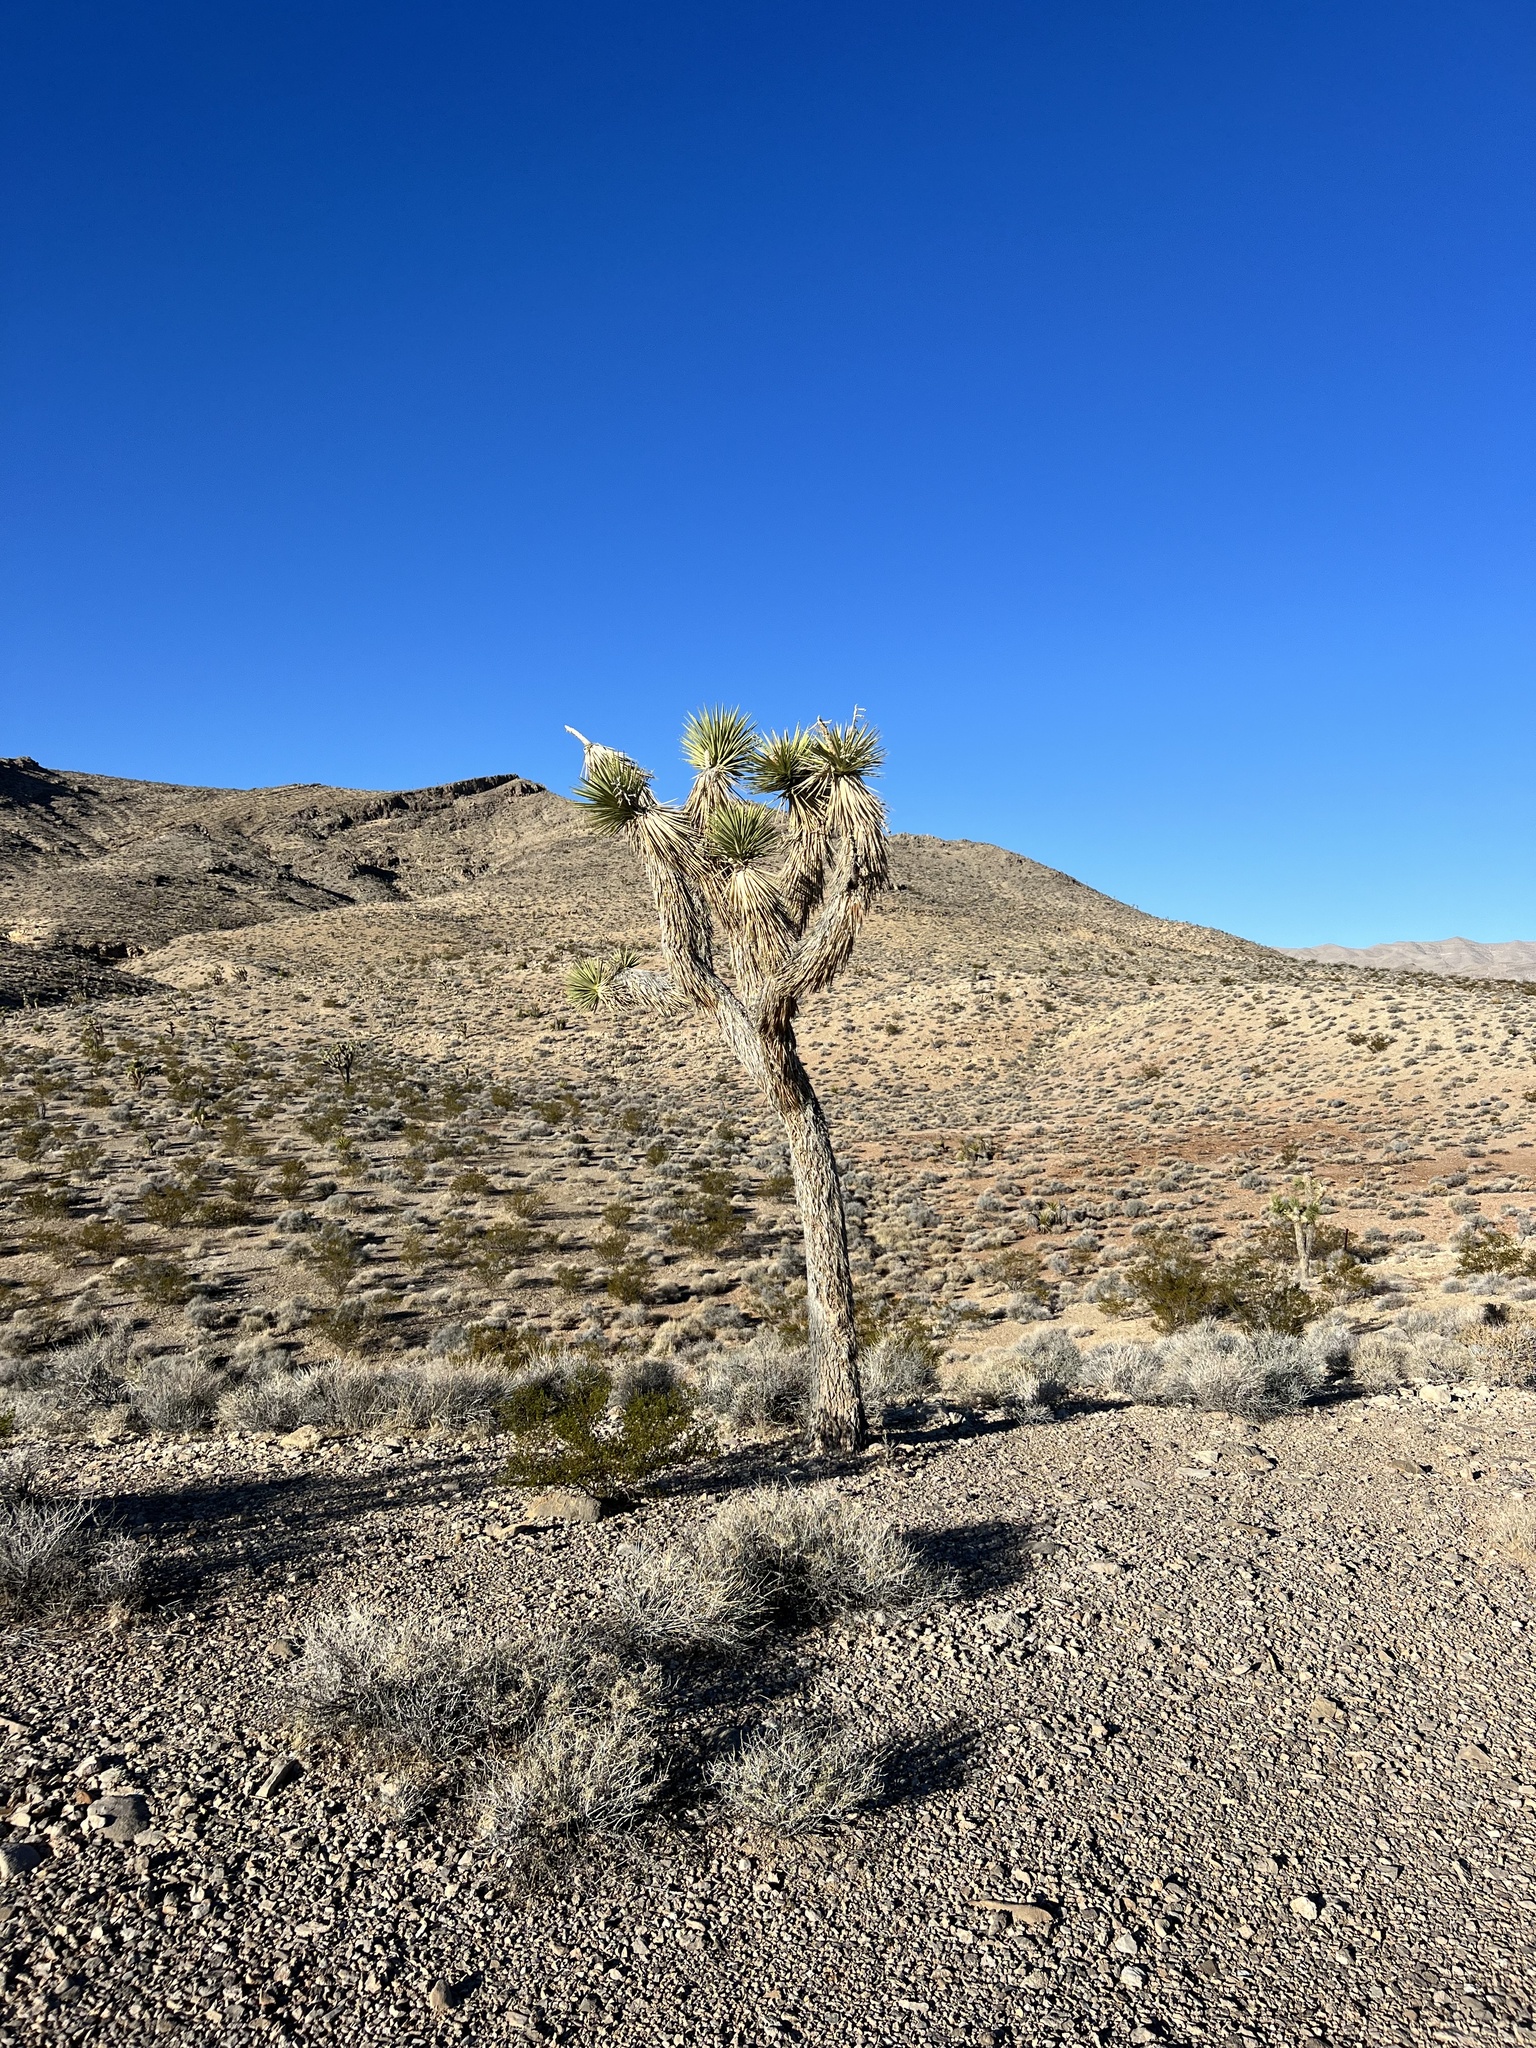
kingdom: Plantae
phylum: Tracheophyta
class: Liliopsida
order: Asparagales
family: Asparagaceae
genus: Yucca
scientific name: Yucca brevifolia
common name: Joshua tree
